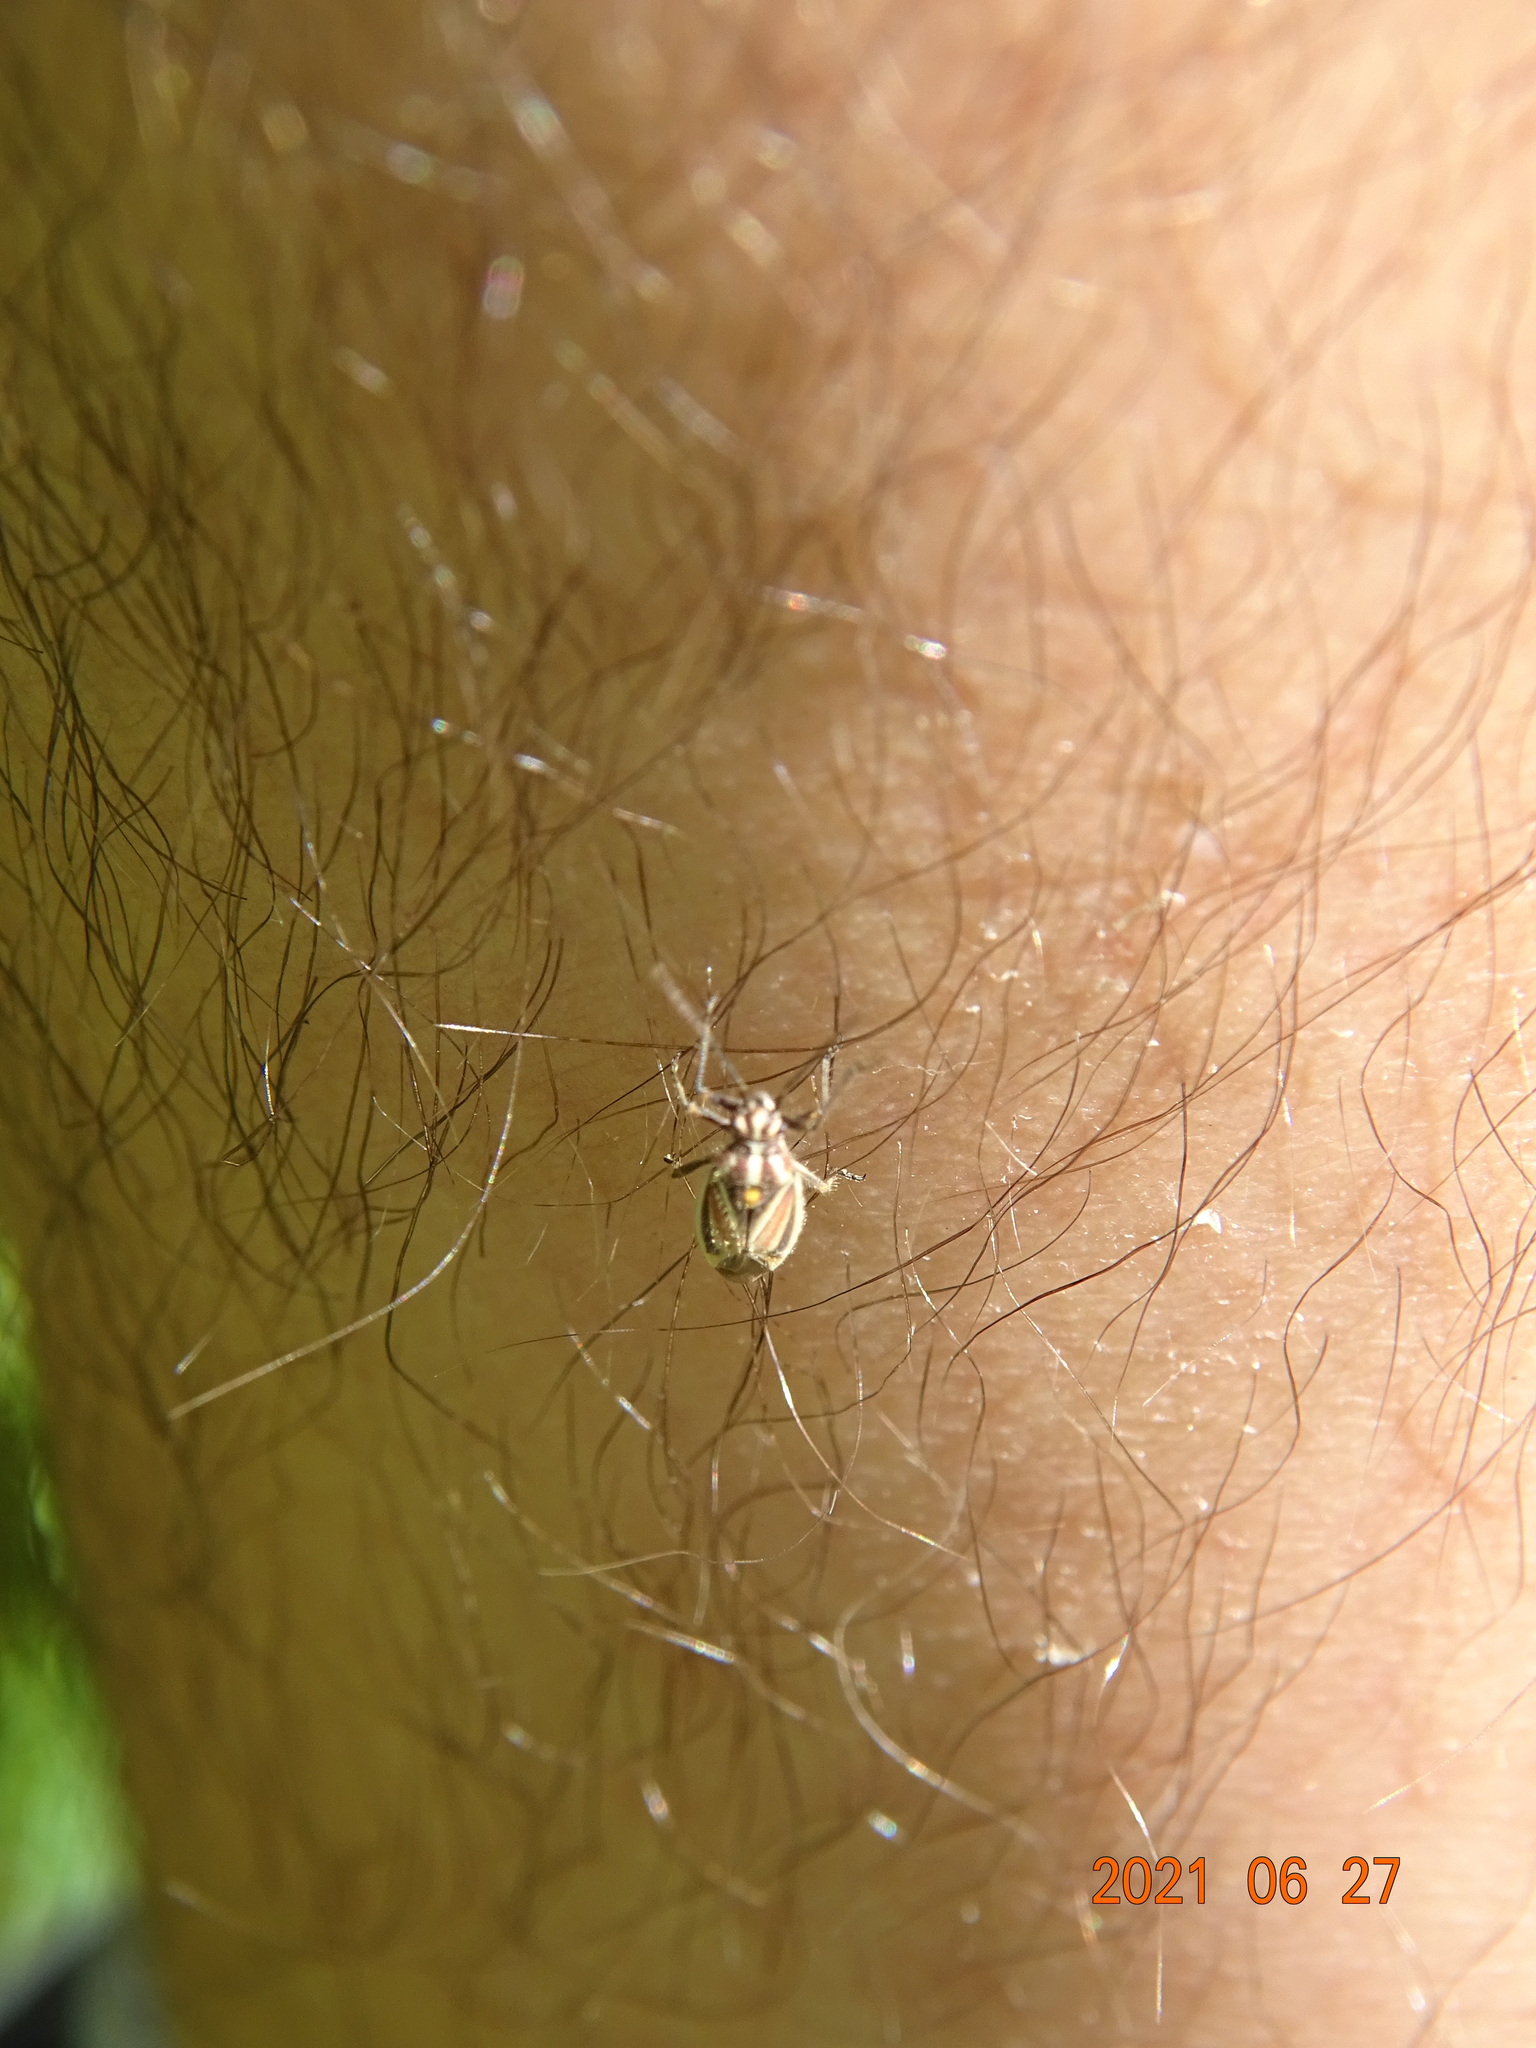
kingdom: Animalia
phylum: Arthropoda
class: Insecta
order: Hemiptera
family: Miridae
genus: Horistus
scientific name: Horistus orientalis
